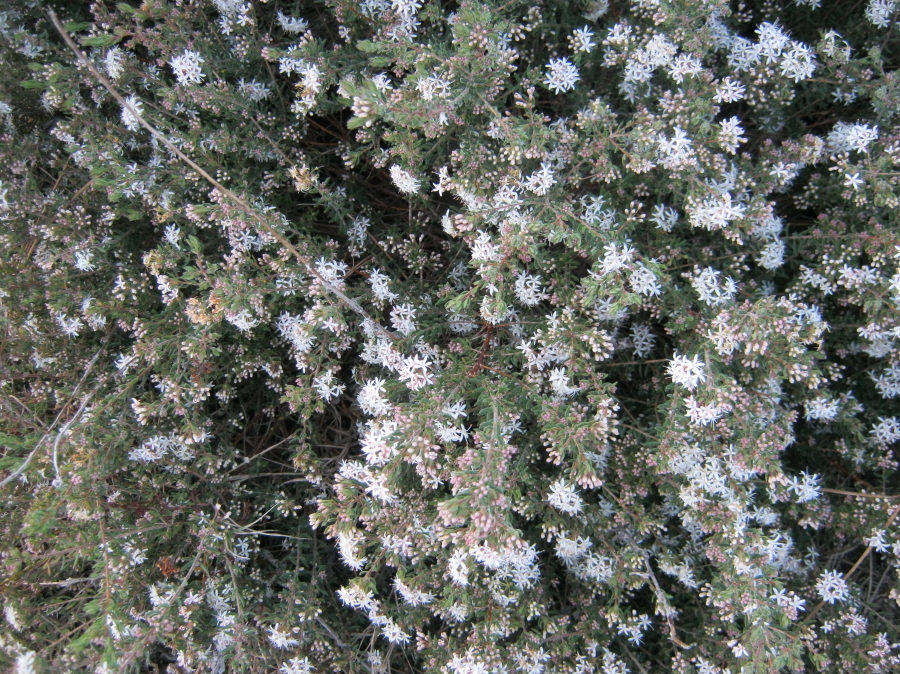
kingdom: Plantae
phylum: Tracheophyta
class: Magnoliopsida
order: Sapindales
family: Rutaceae
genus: Agathosma
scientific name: Agathosma mundtii
